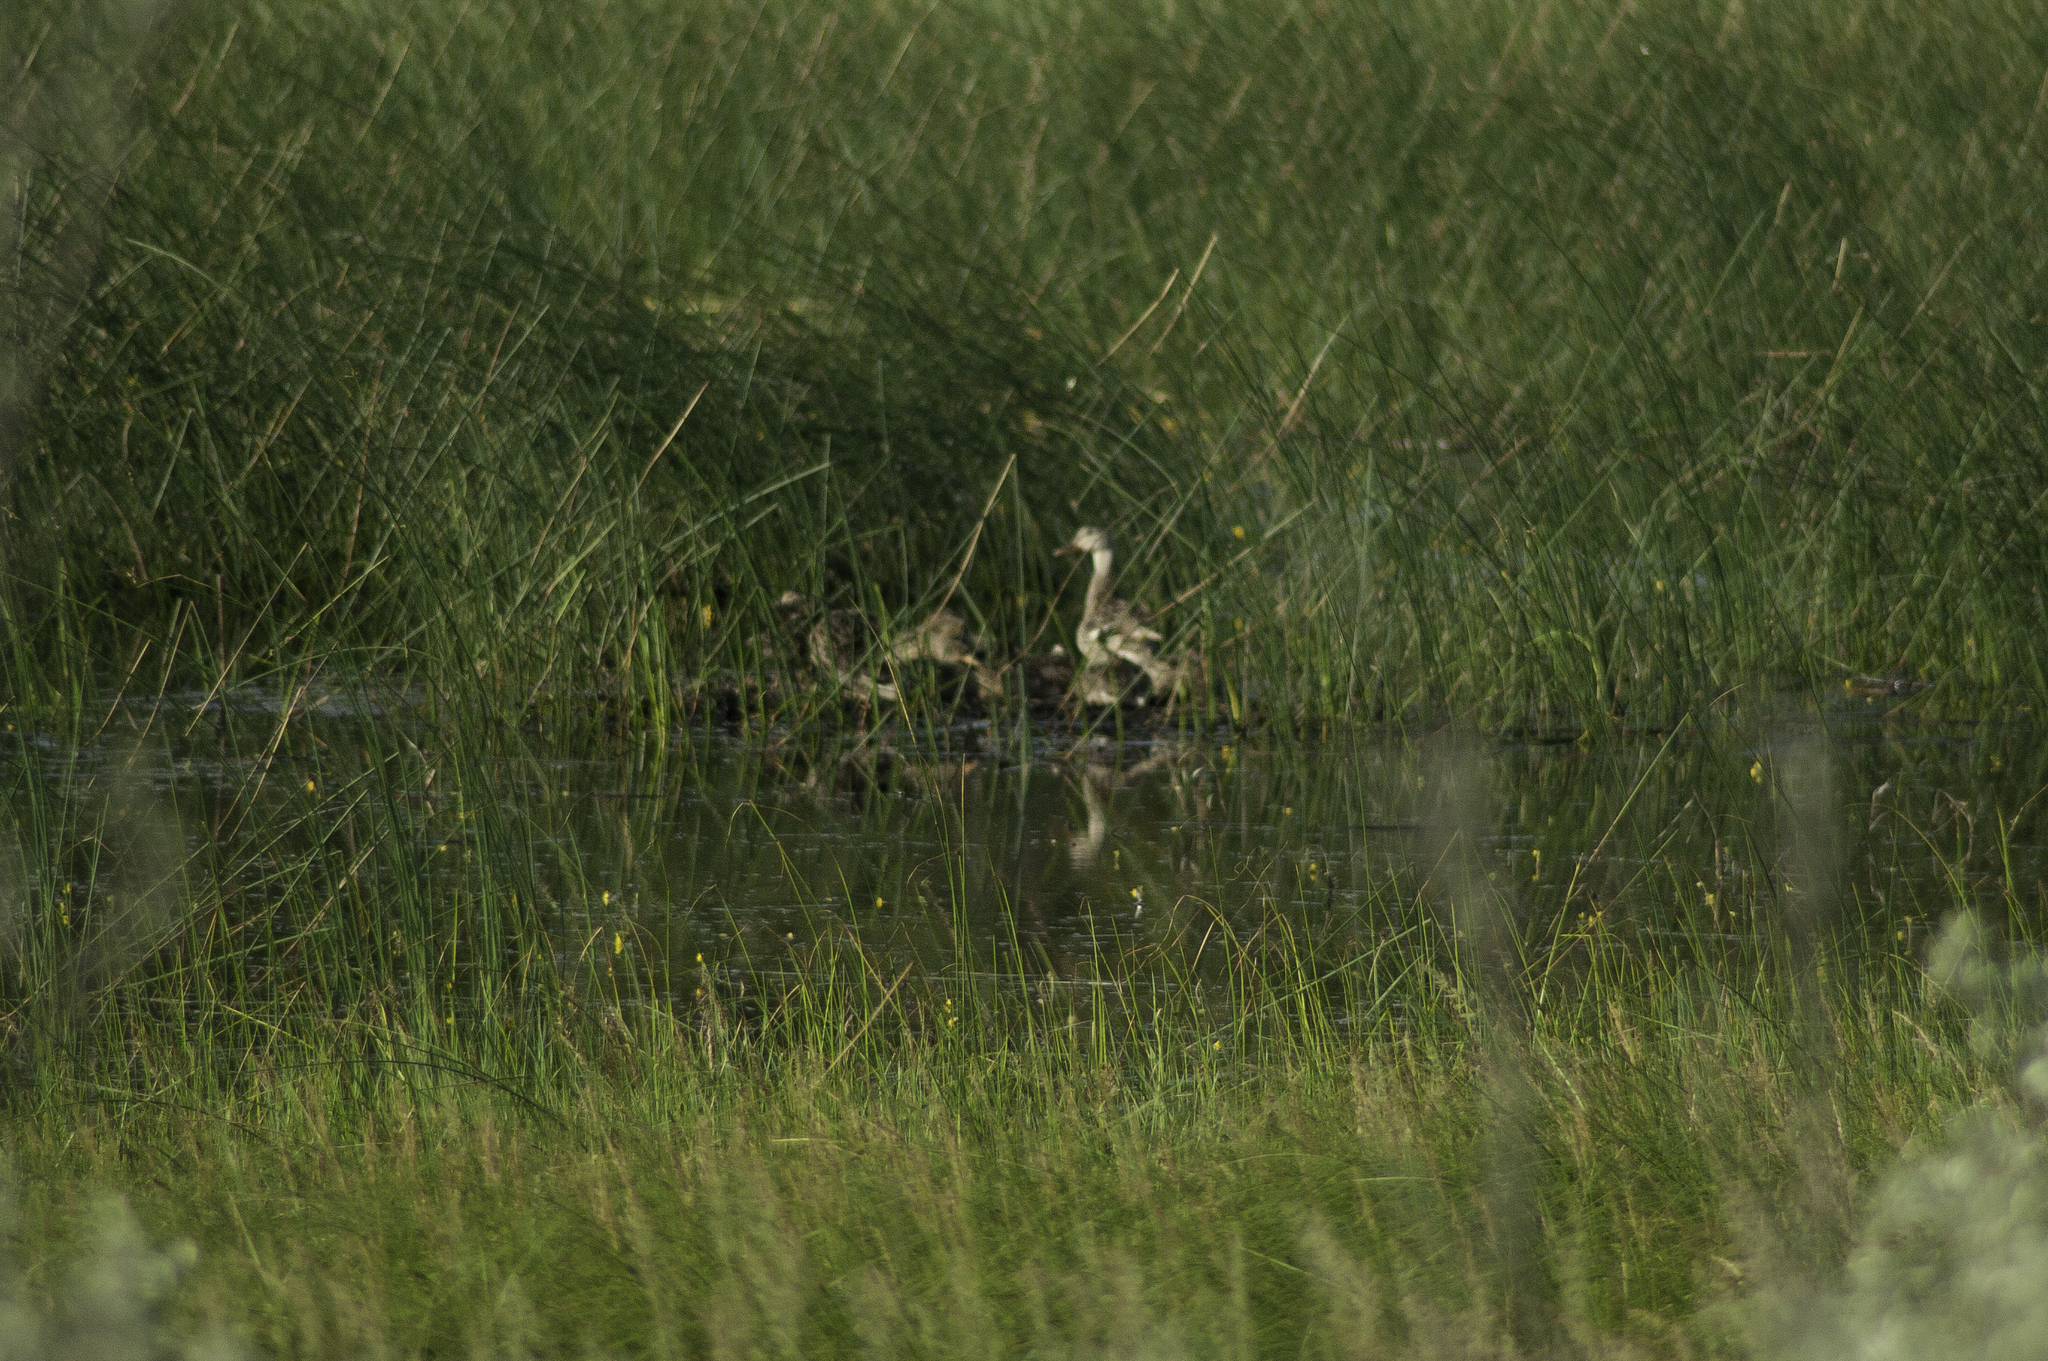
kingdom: Animalia
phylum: Chordata
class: Aves
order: Anseriformes
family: Anatidae
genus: Anas
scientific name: Anas platyrhynchos
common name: Mallard
